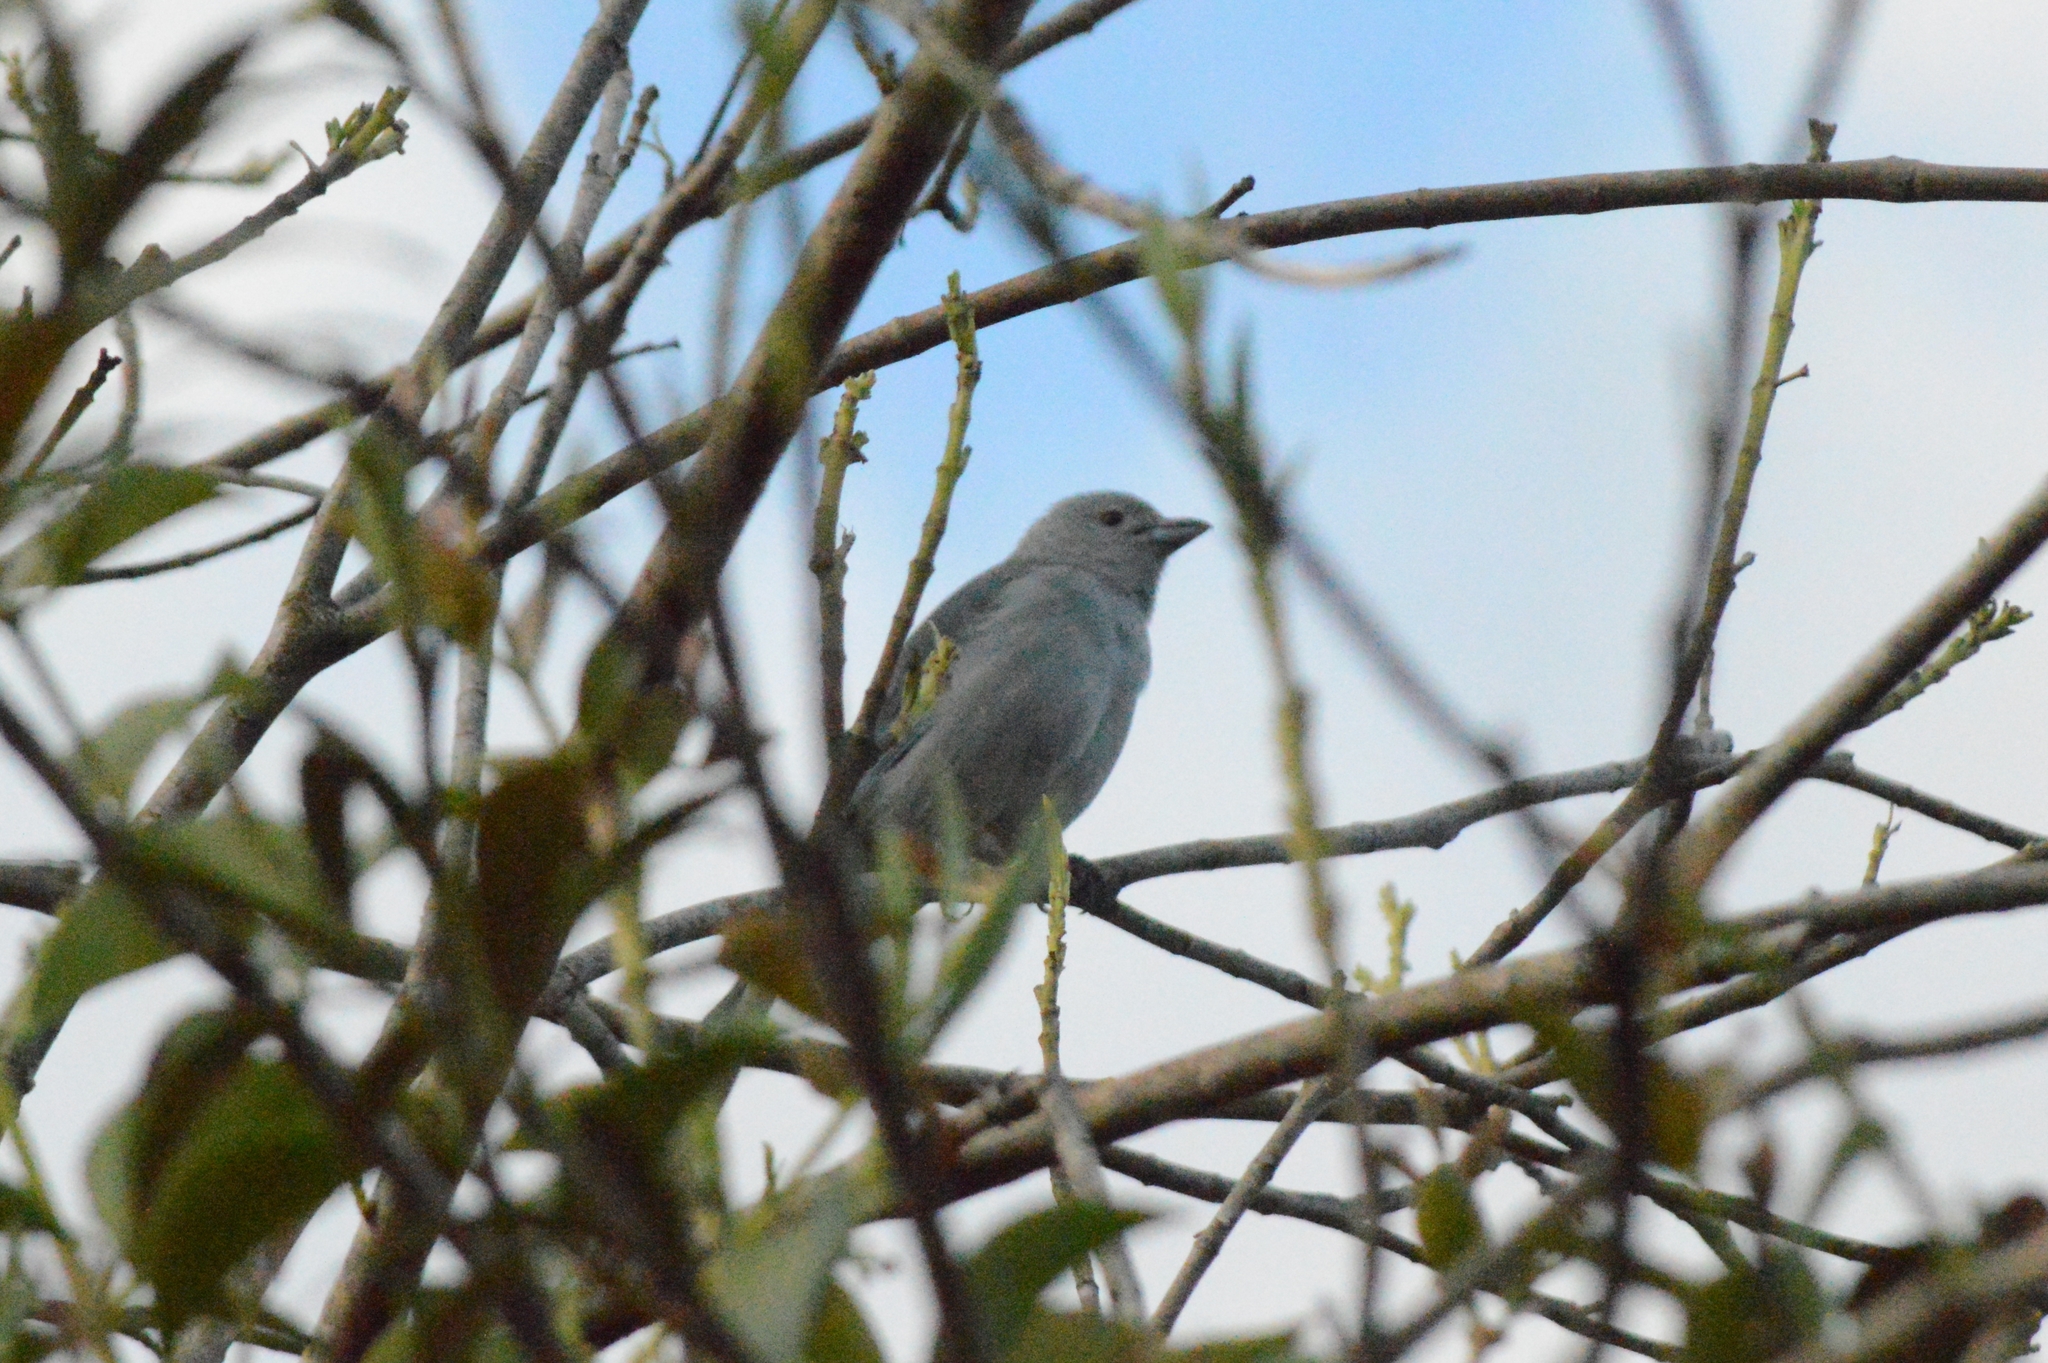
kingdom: Animalia
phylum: Chordata
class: Aves
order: Passeriformes
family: Thraupidae
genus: Thraupis
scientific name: Thraupis sayaca
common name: Sayaca tanager
